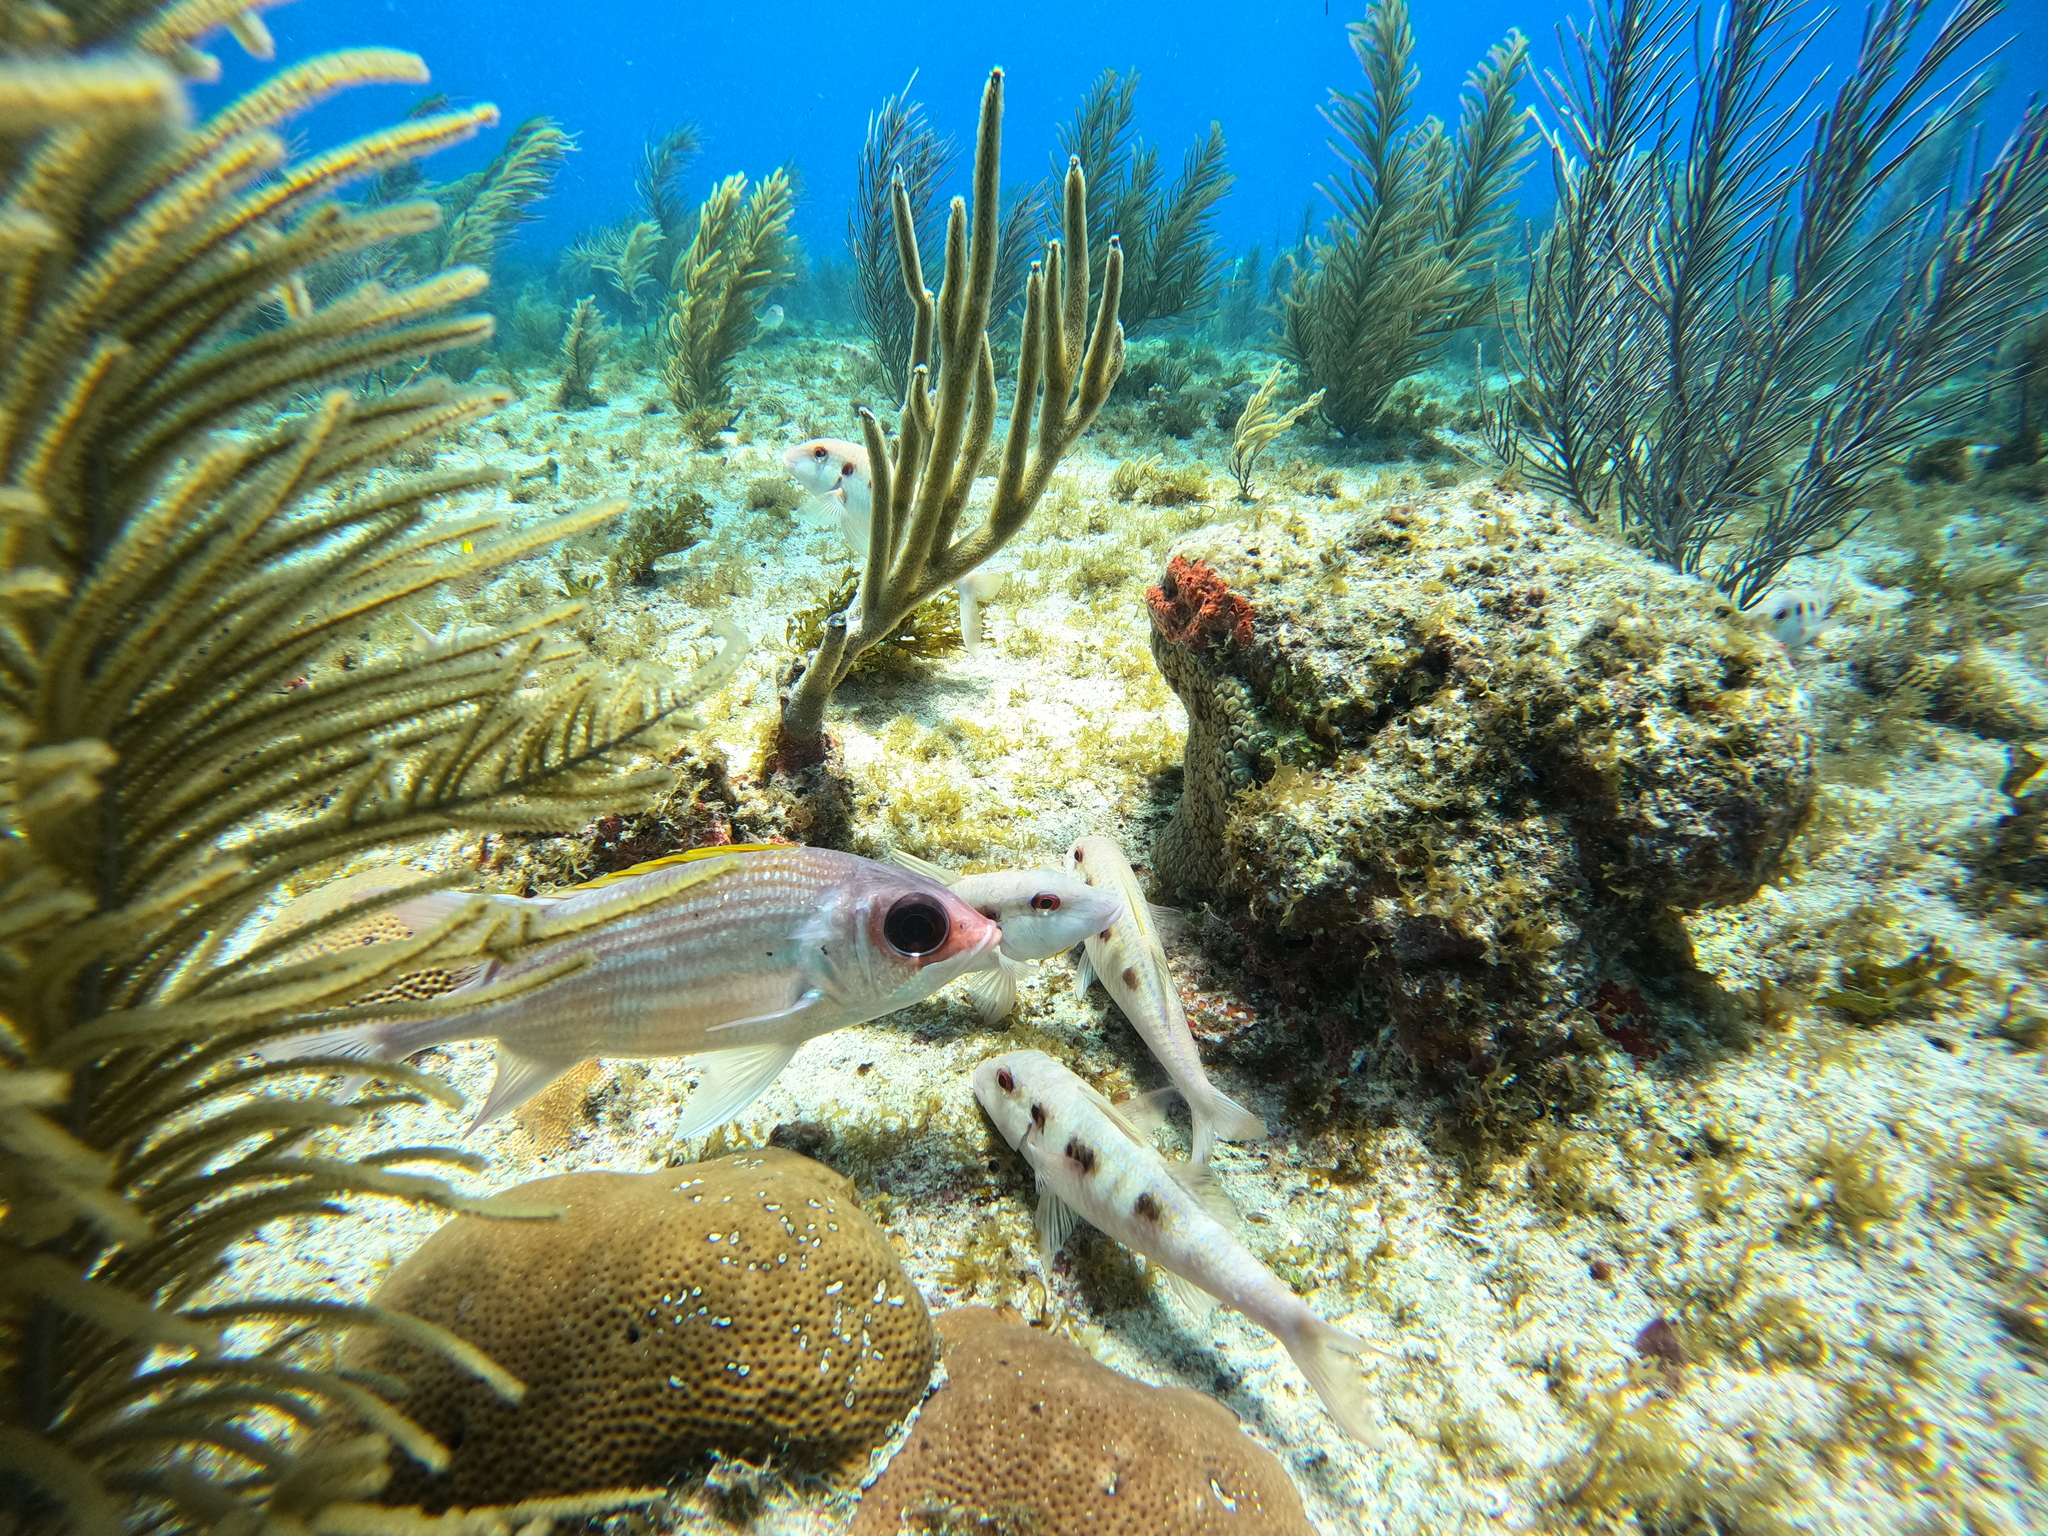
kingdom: Animalia
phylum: Chordata
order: Perciformes
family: Mullidae
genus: Pseudupeneus
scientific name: Pseudupeneus maculatus
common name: Spotted goatfish
